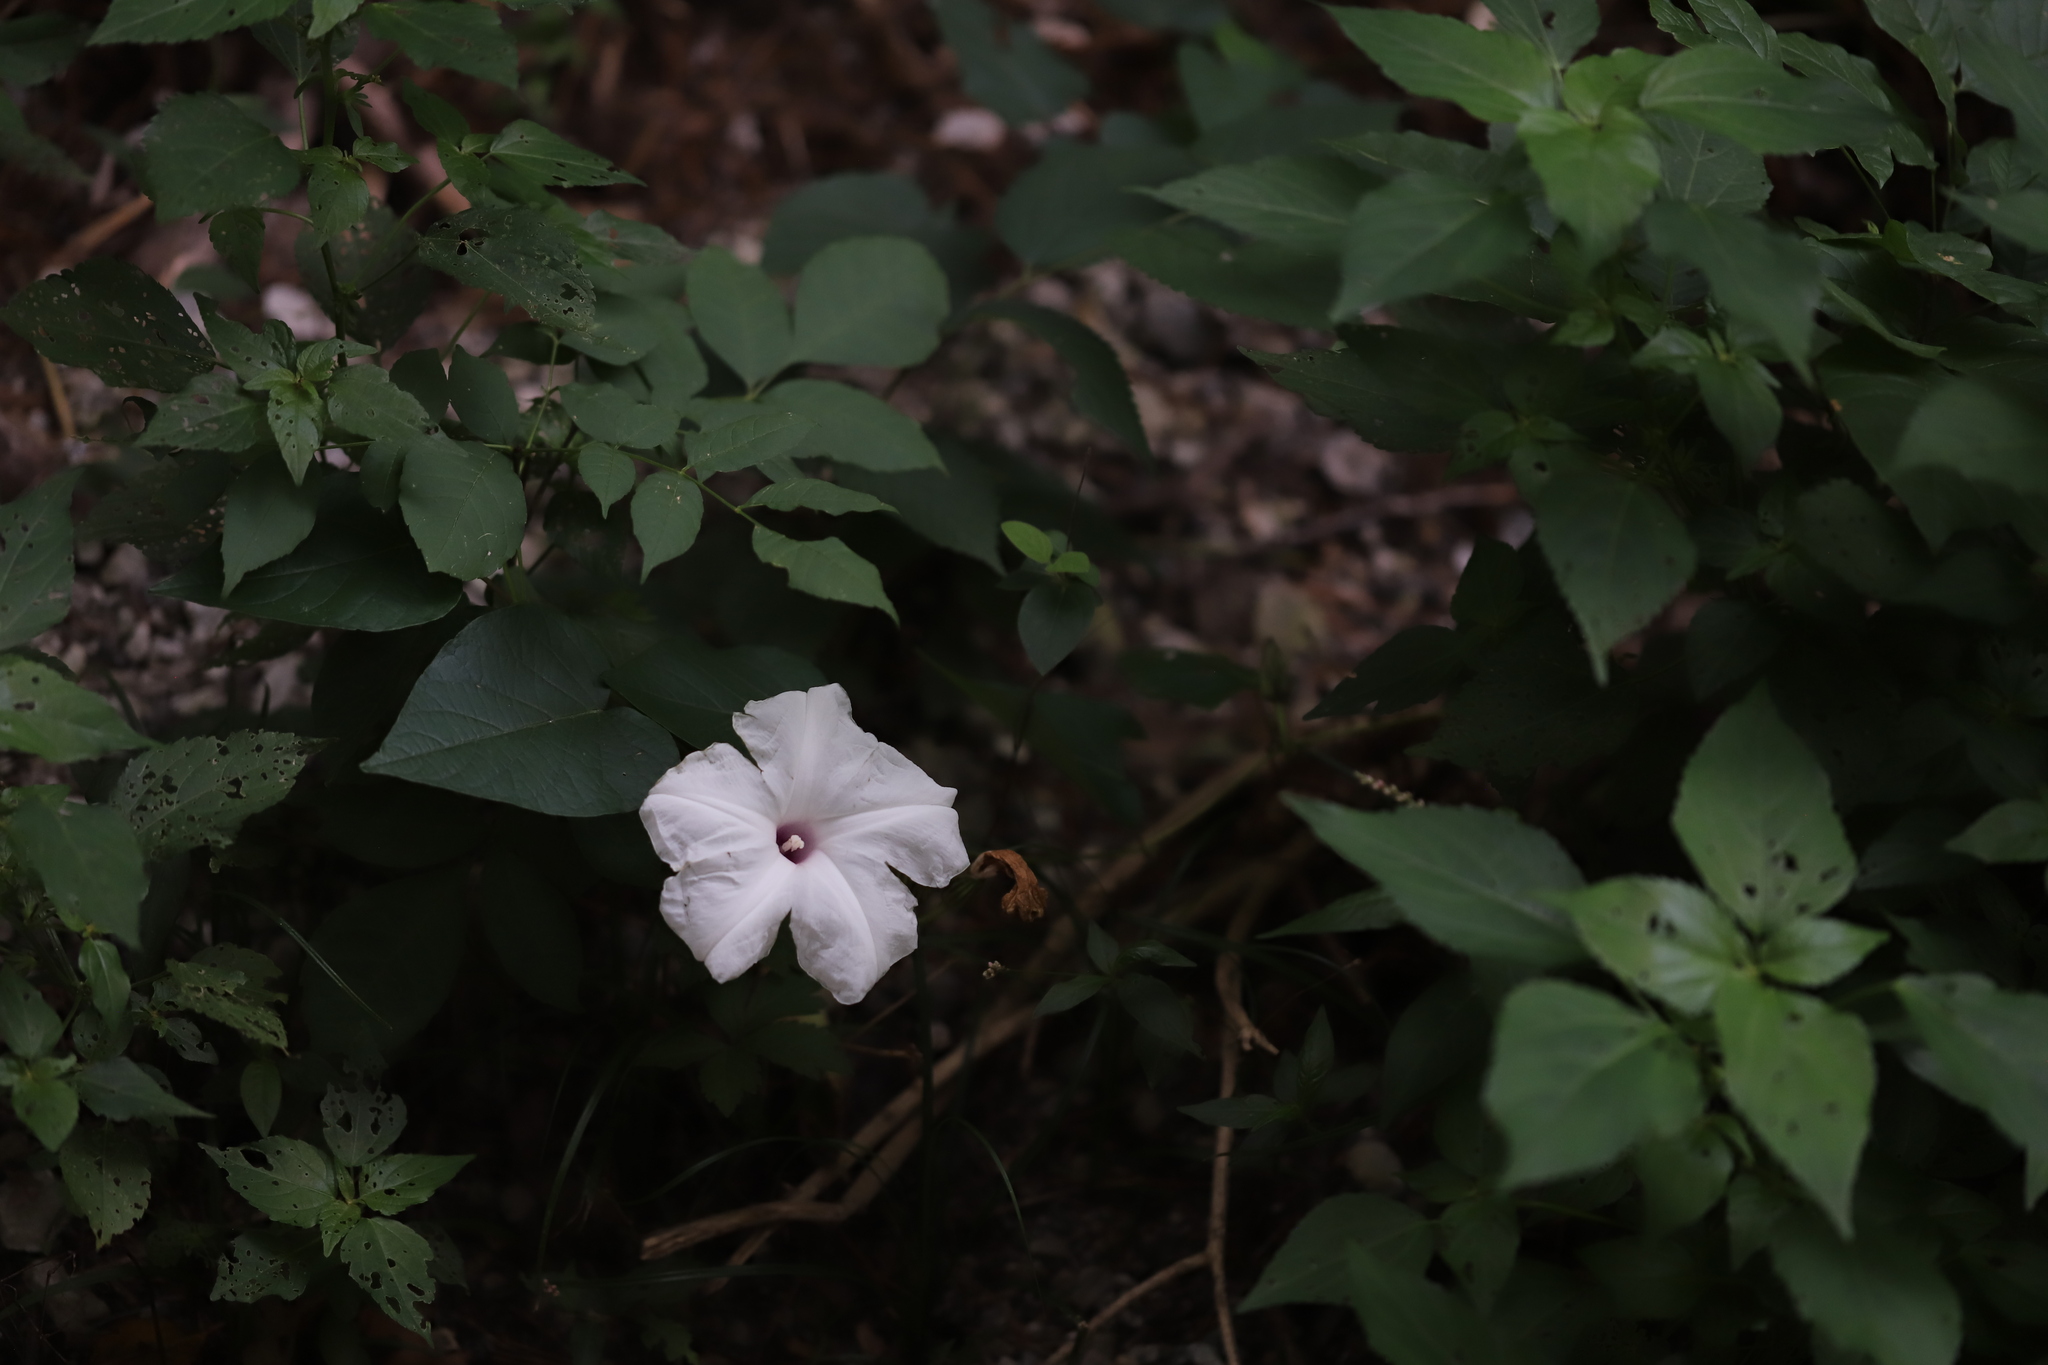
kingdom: Plantae
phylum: Tracheophyta
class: Magnoliopsida
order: Solanales
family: Convolvulaceae
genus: Ipomoea
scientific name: Ipomoea pandurata
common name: Man-of-the-earth
